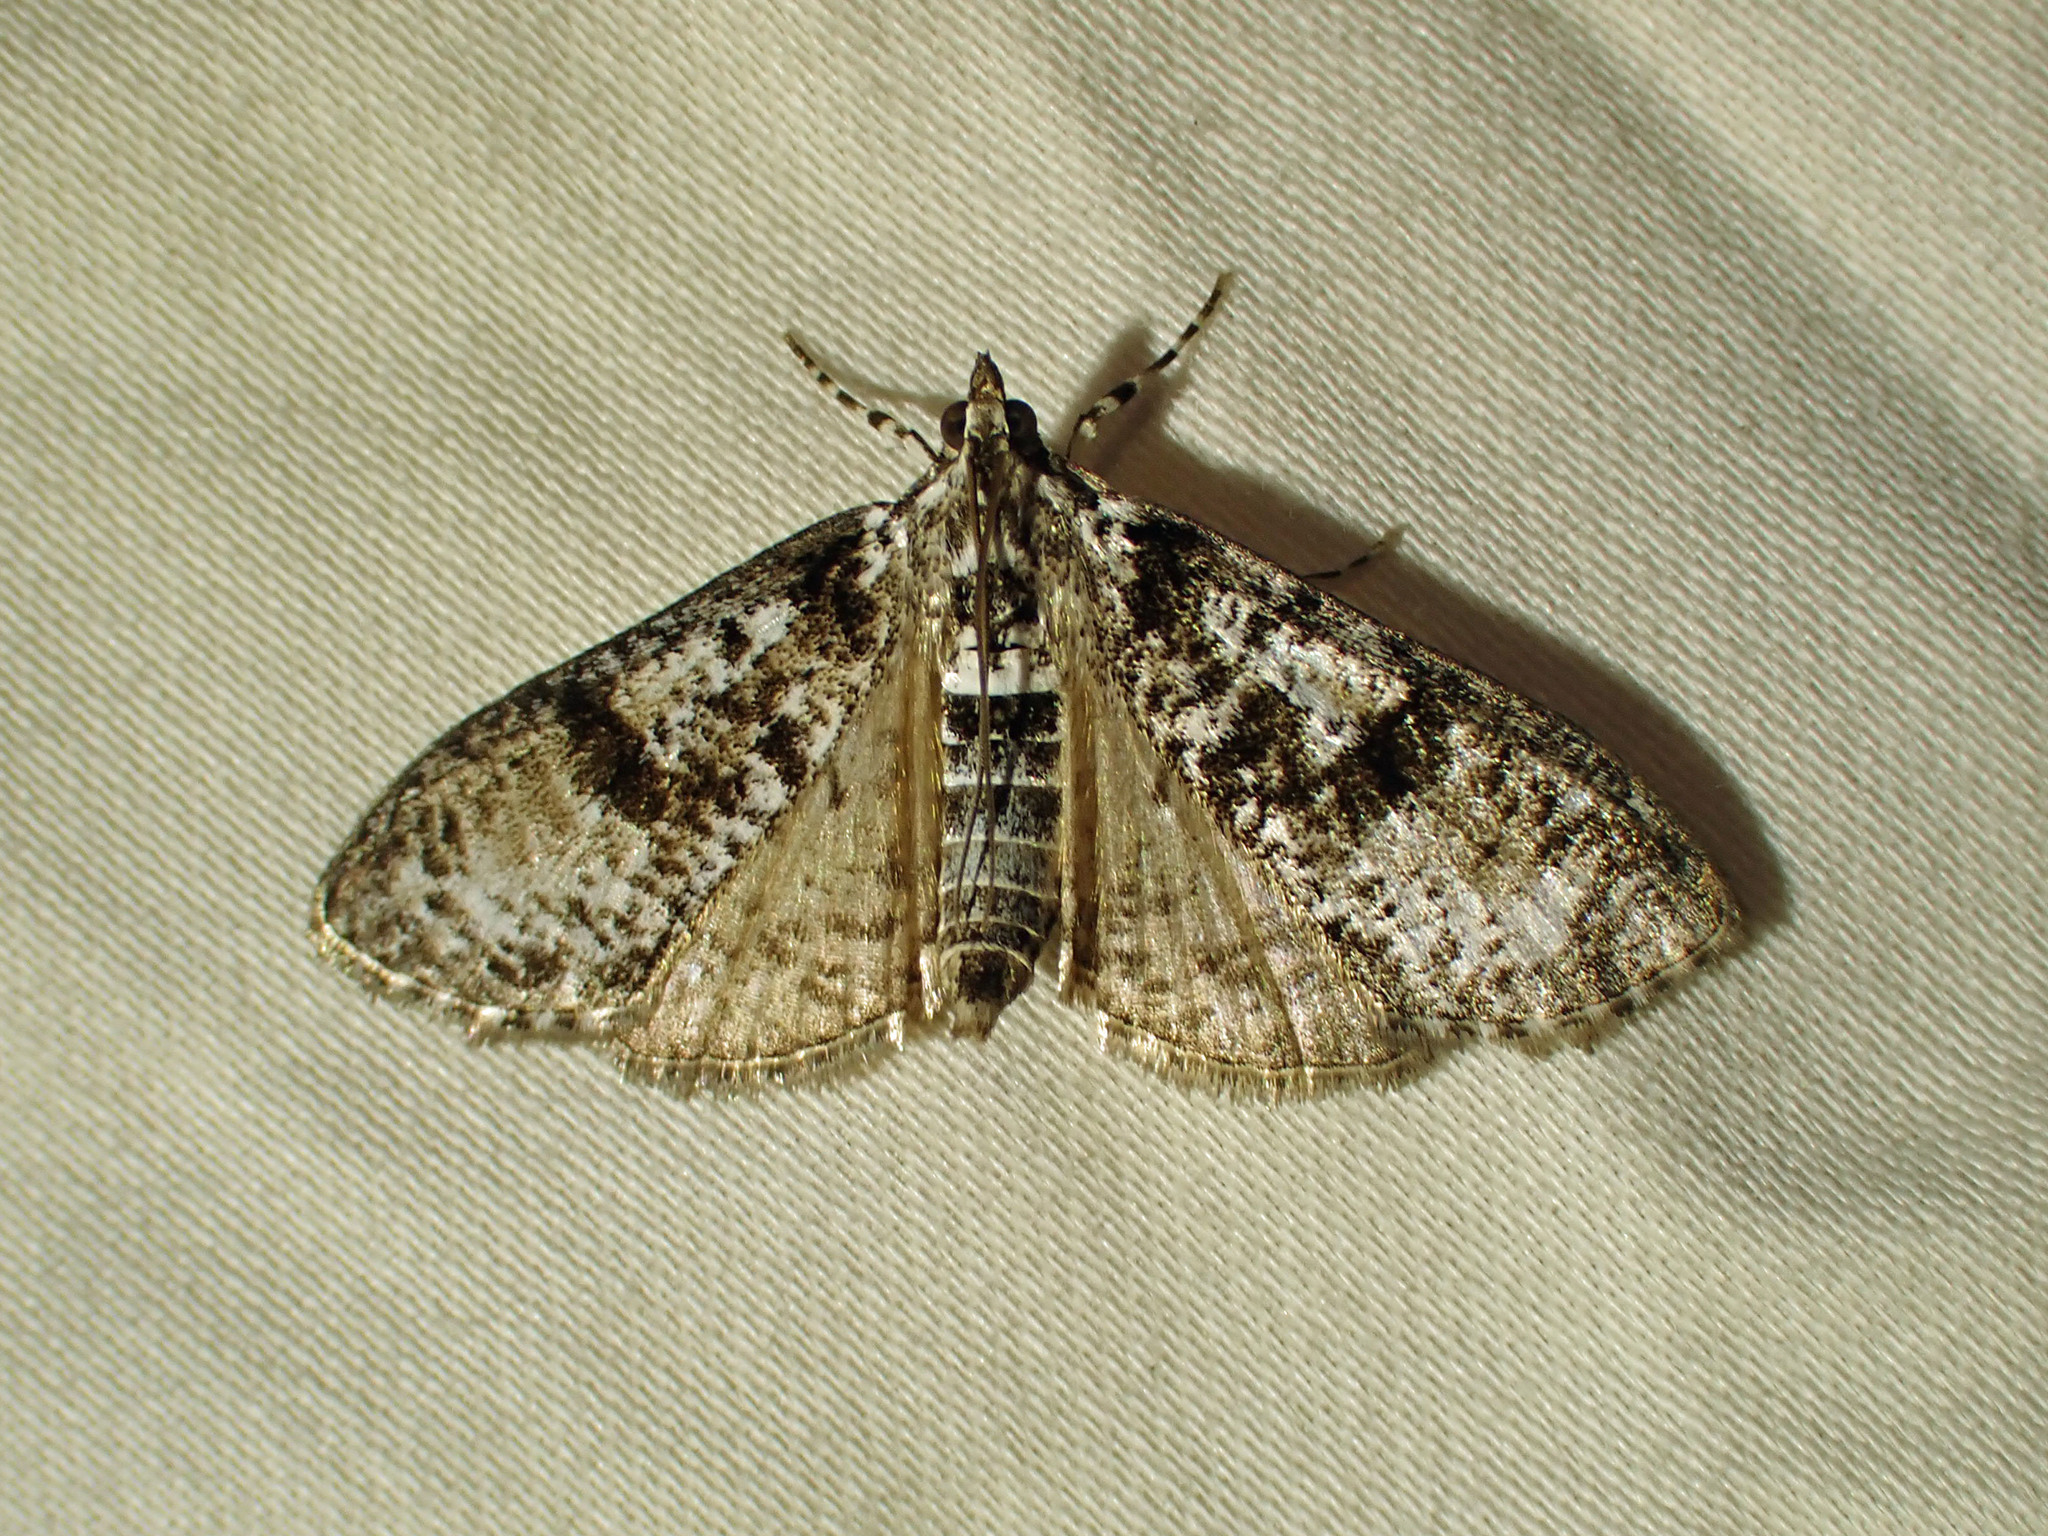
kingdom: Animalia
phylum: Arthropoda
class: Insecta
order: Lepidoptera
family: Crambidae
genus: Palpita
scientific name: Palpita magniferalis
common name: Splendid palpita moth
